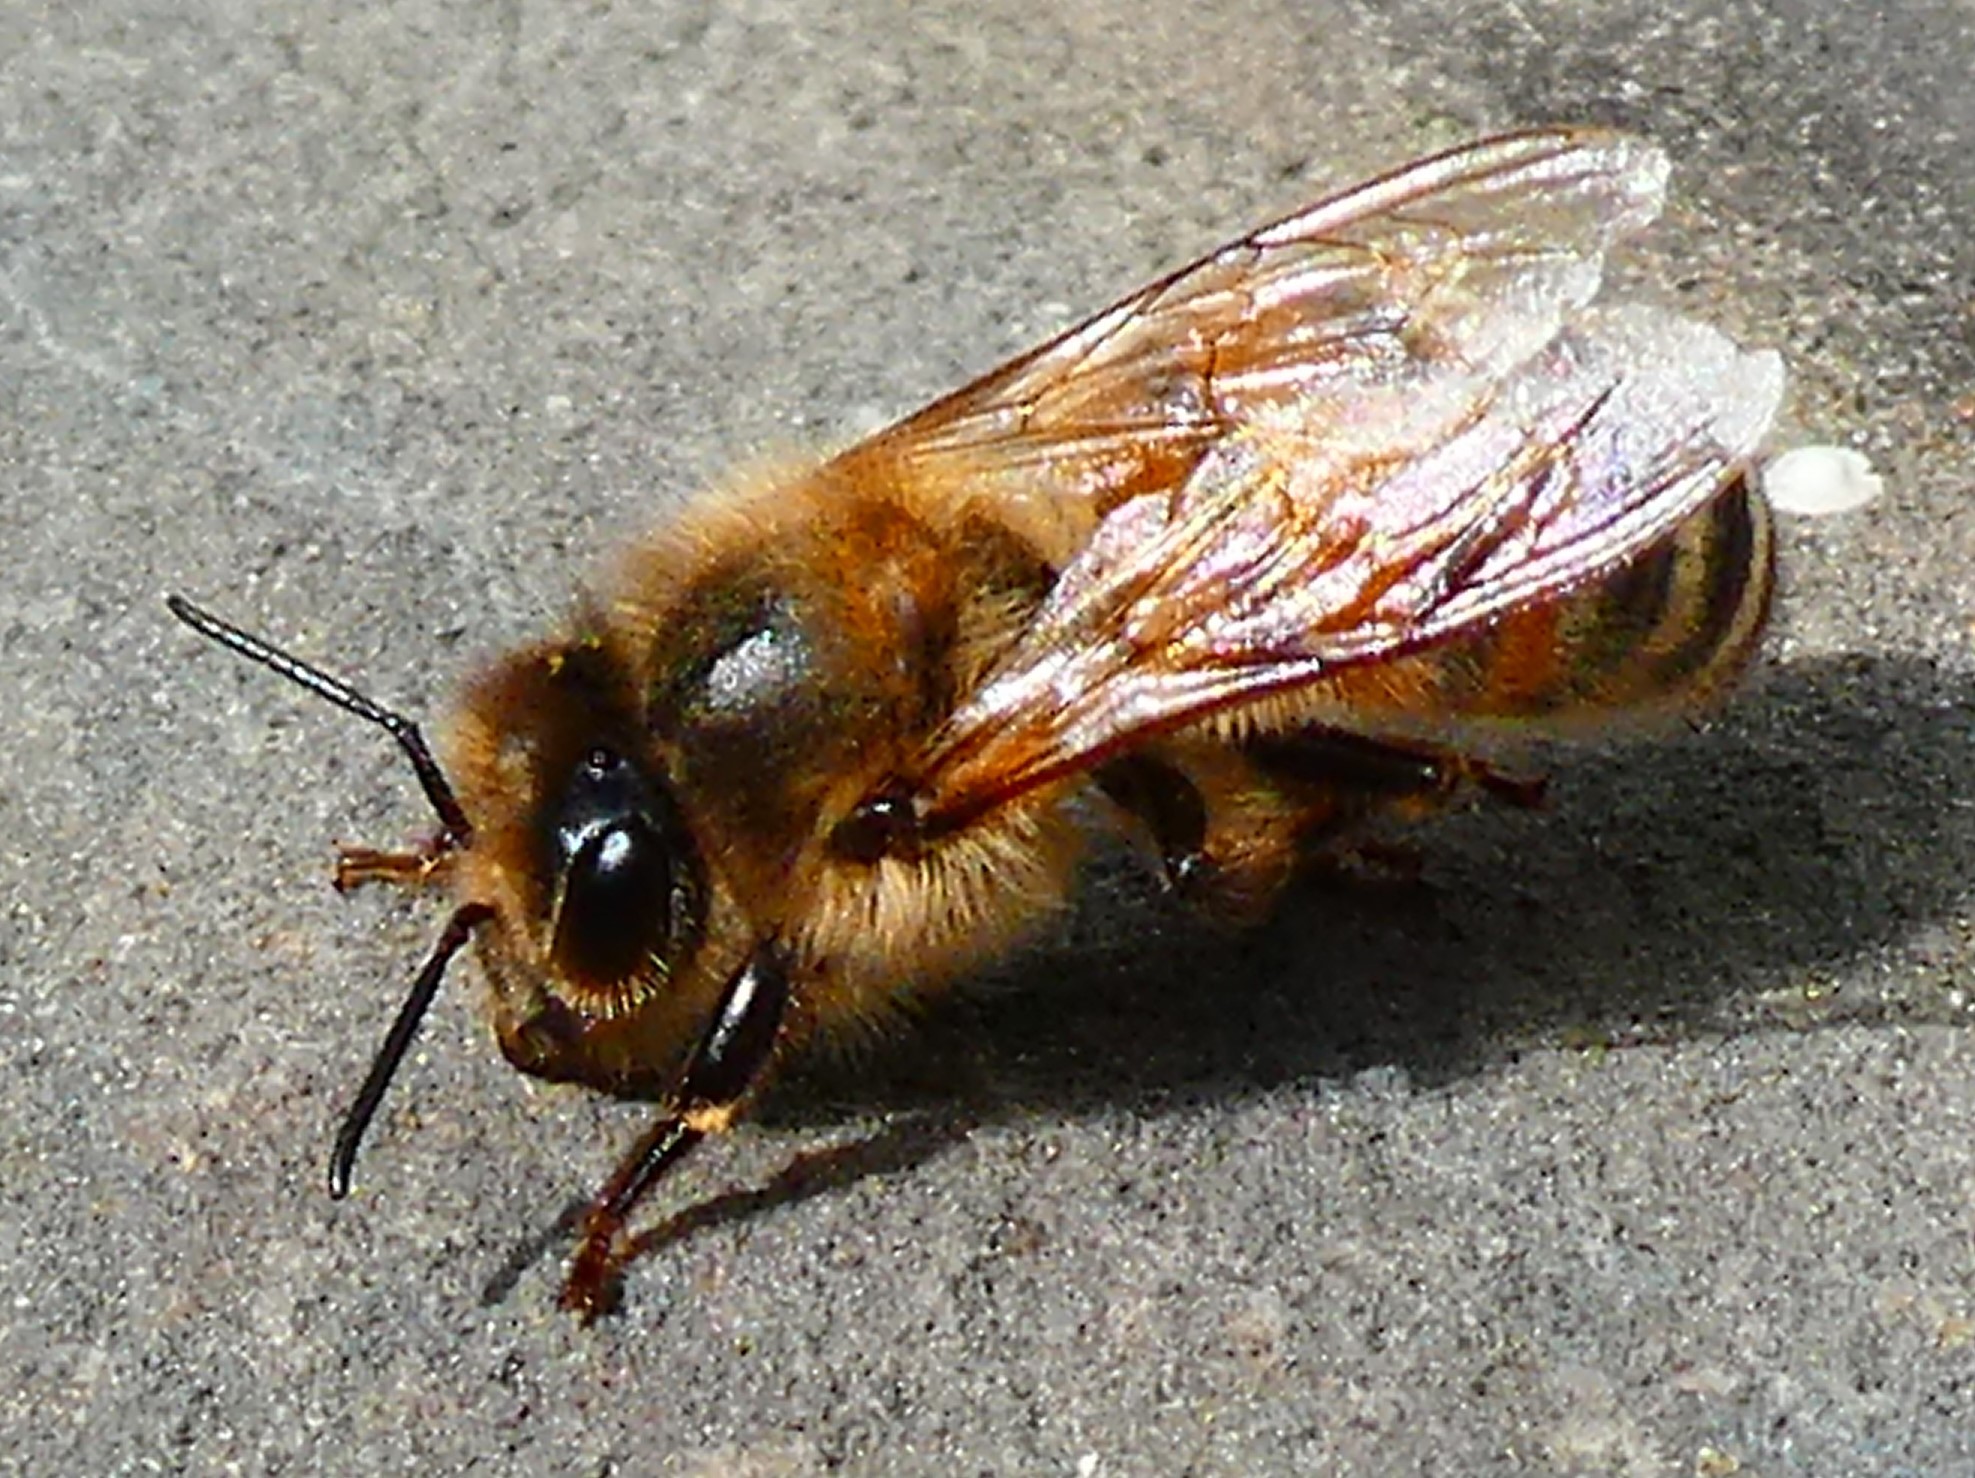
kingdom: Animalia
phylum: Arthropoda
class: Insecta
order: Hymenoptera
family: Apidae
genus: Apis
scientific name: Apis mellifera
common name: Honey bee
